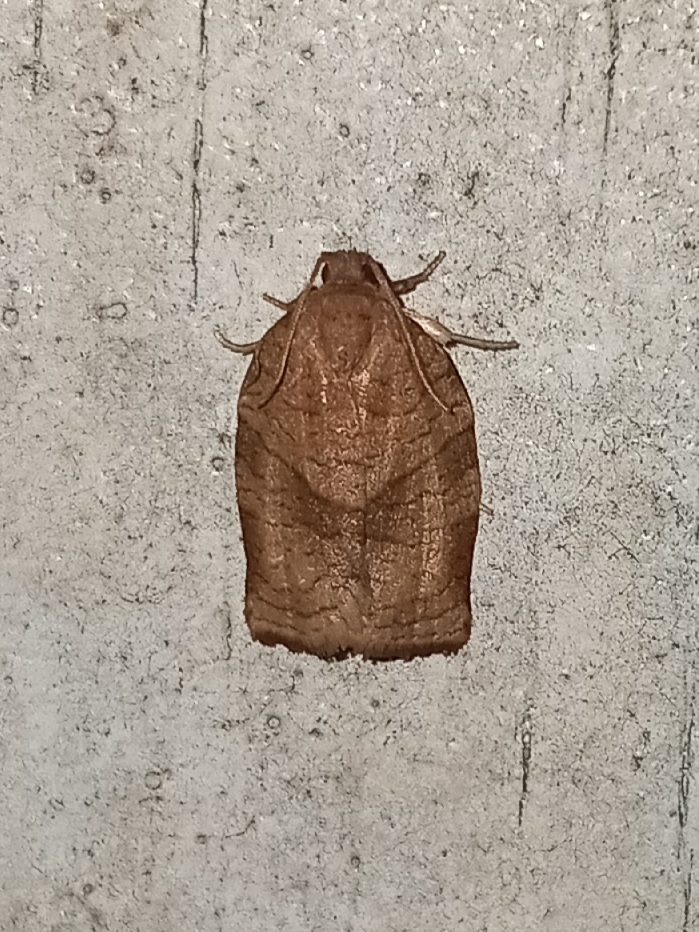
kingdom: Animalia
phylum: Arthropoda
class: Insecta
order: Lepidoptera
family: Tortricidae
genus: Choristoneura
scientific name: Choristoneura rosaceana
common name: Oblique-banded leafroller moth
